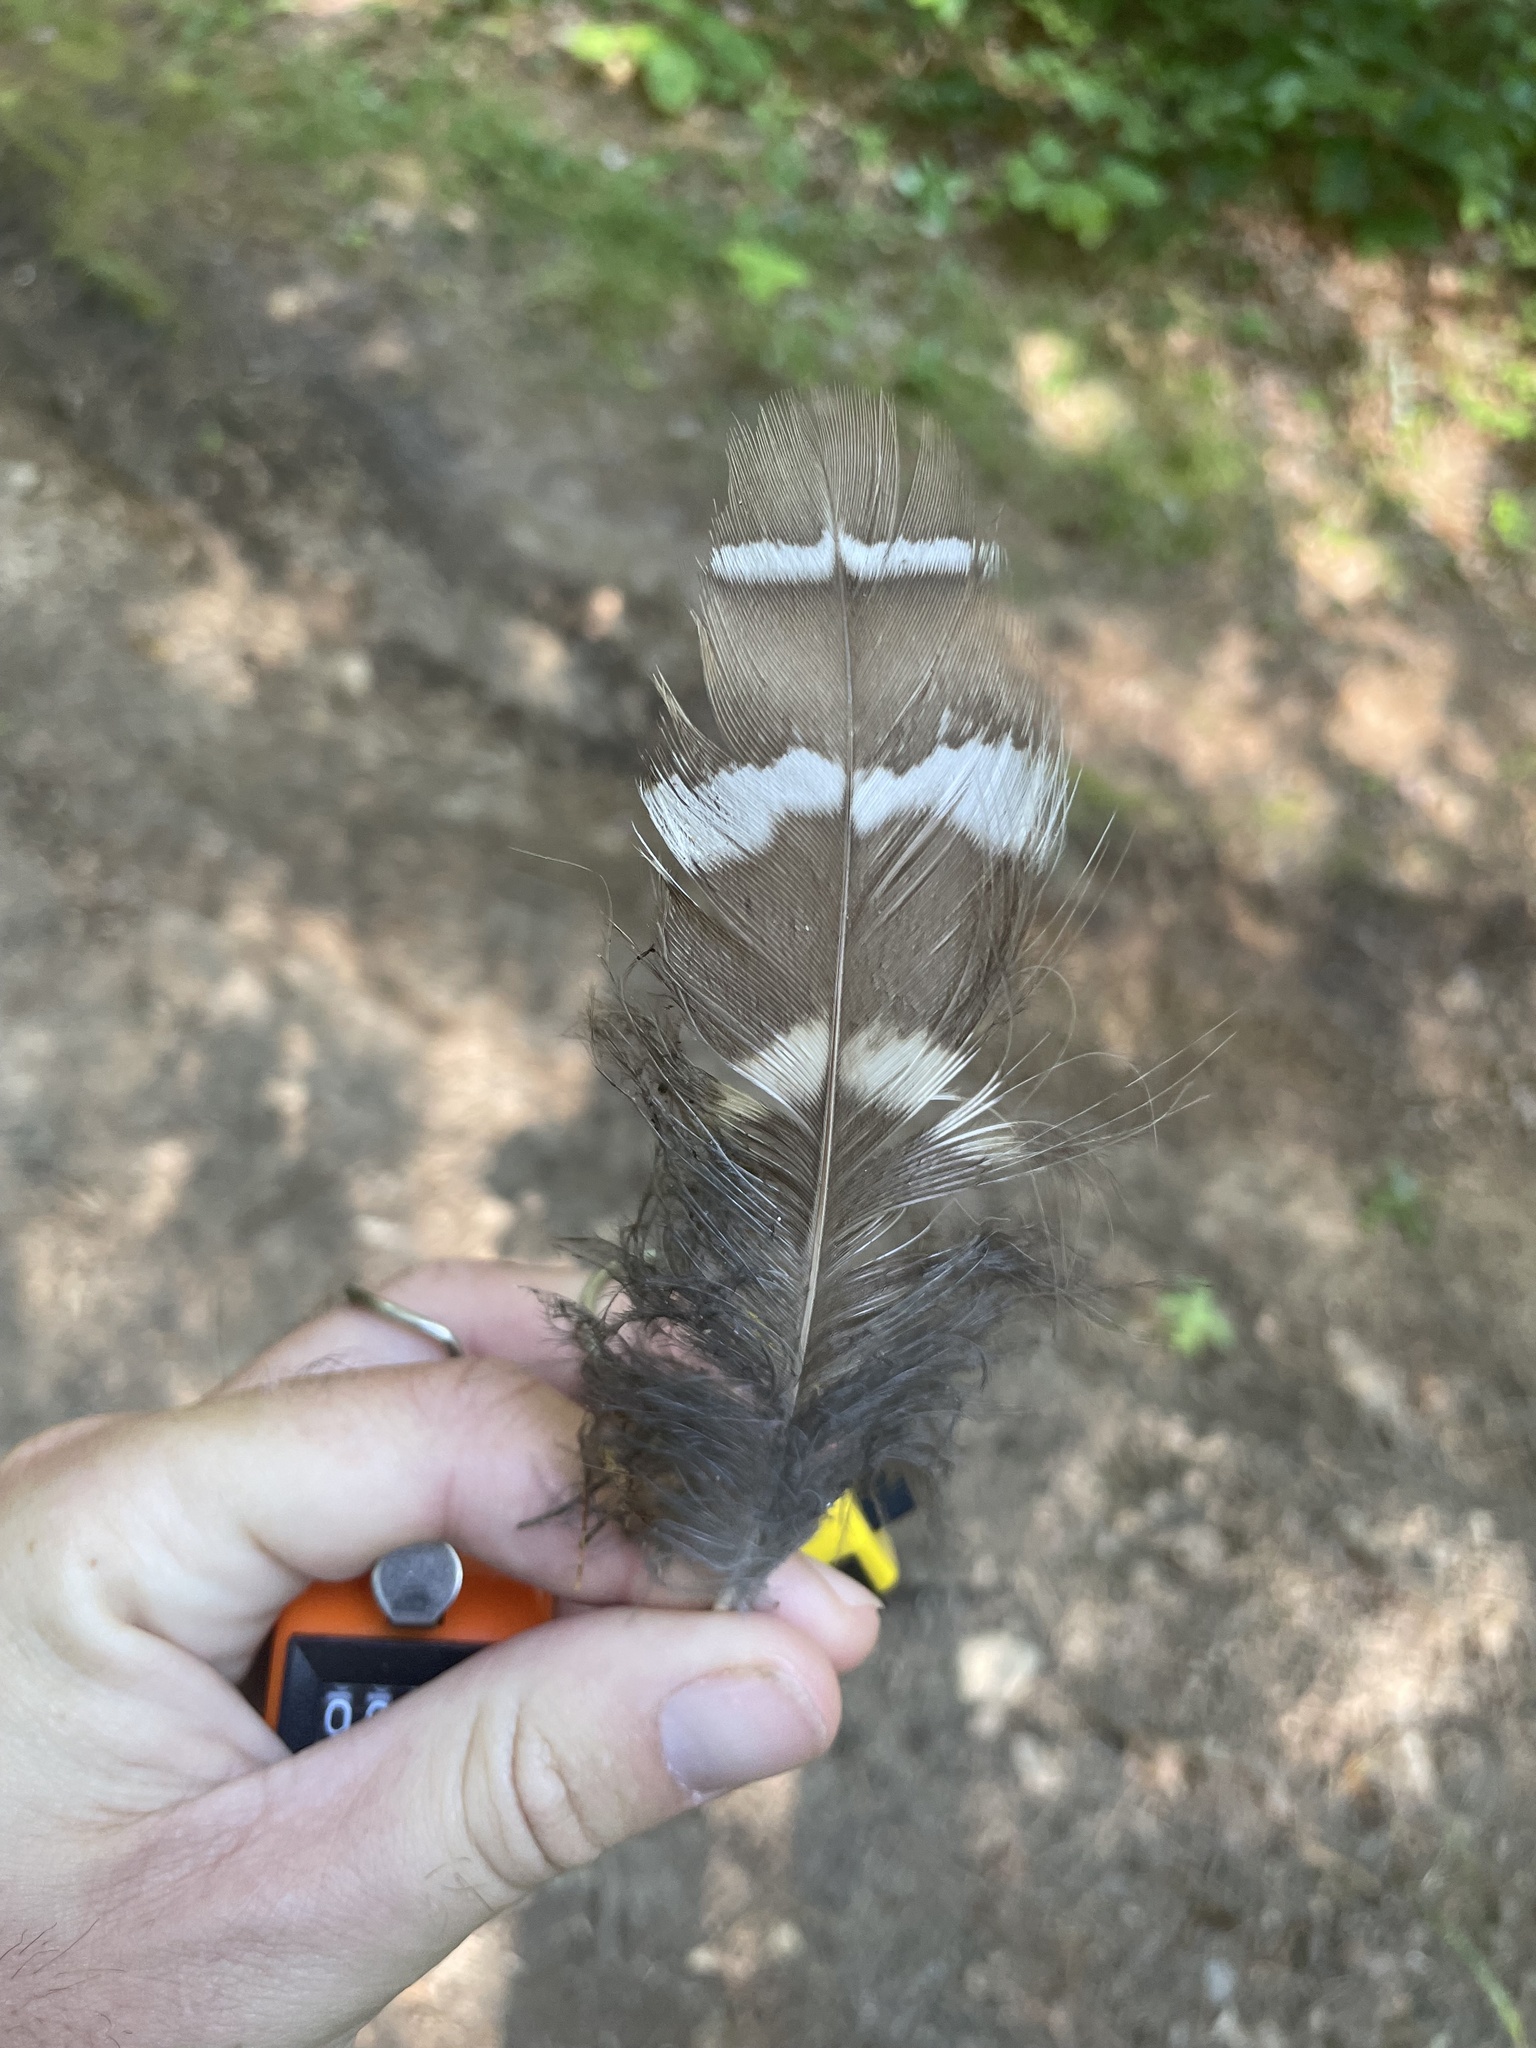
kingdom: Animalia
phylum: Chordata
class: Aves
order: Strigiformes
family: Strigidae
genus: Strix
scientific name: Strix varia
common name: Barred owl
